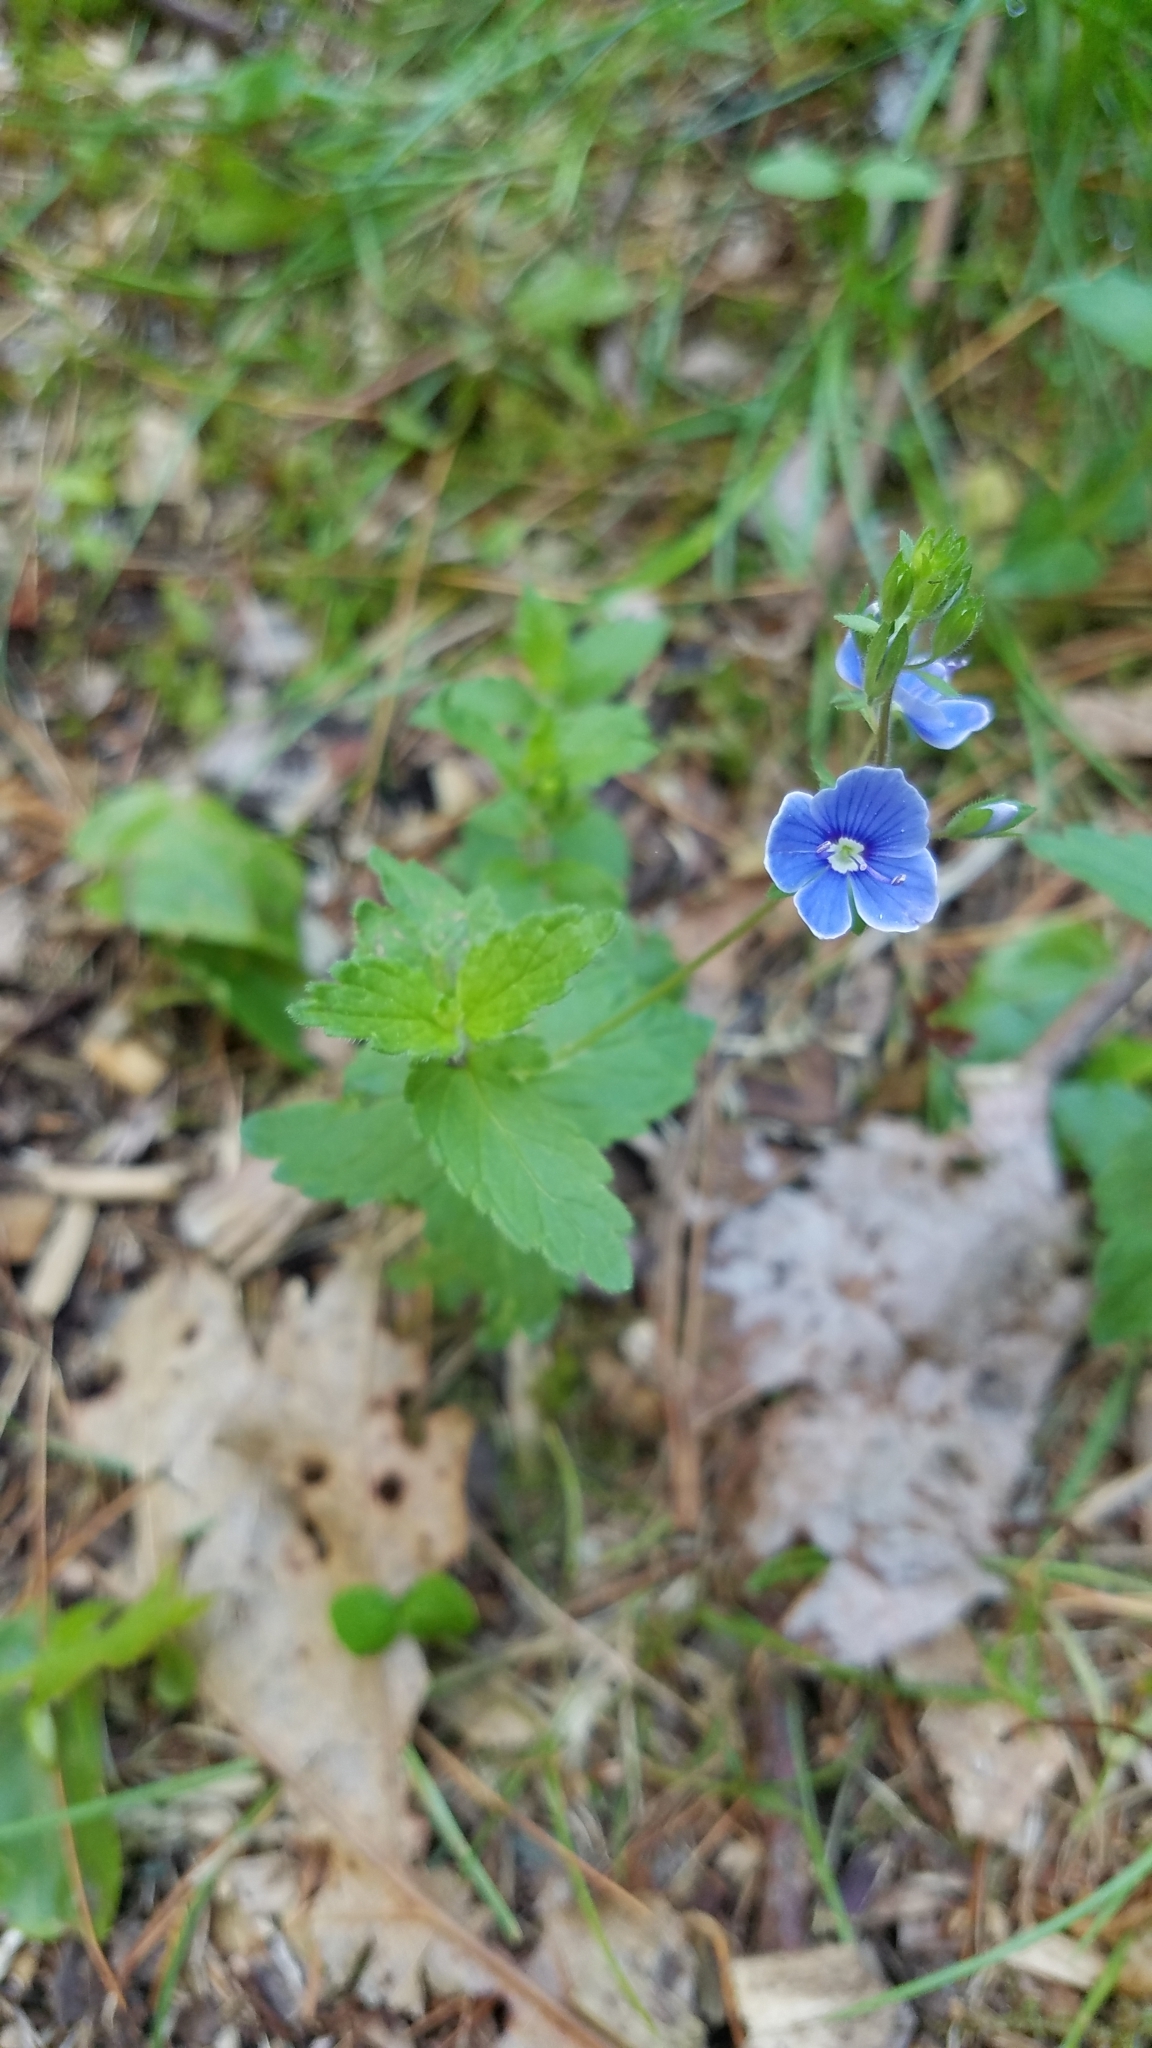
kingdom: Plantae
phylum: Tracheophyta
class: Magnoliopsida
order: Lamiales
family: Plantaginaceae
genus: Veronica
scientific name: Veronica chamaedrys
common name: Germander speedwell
